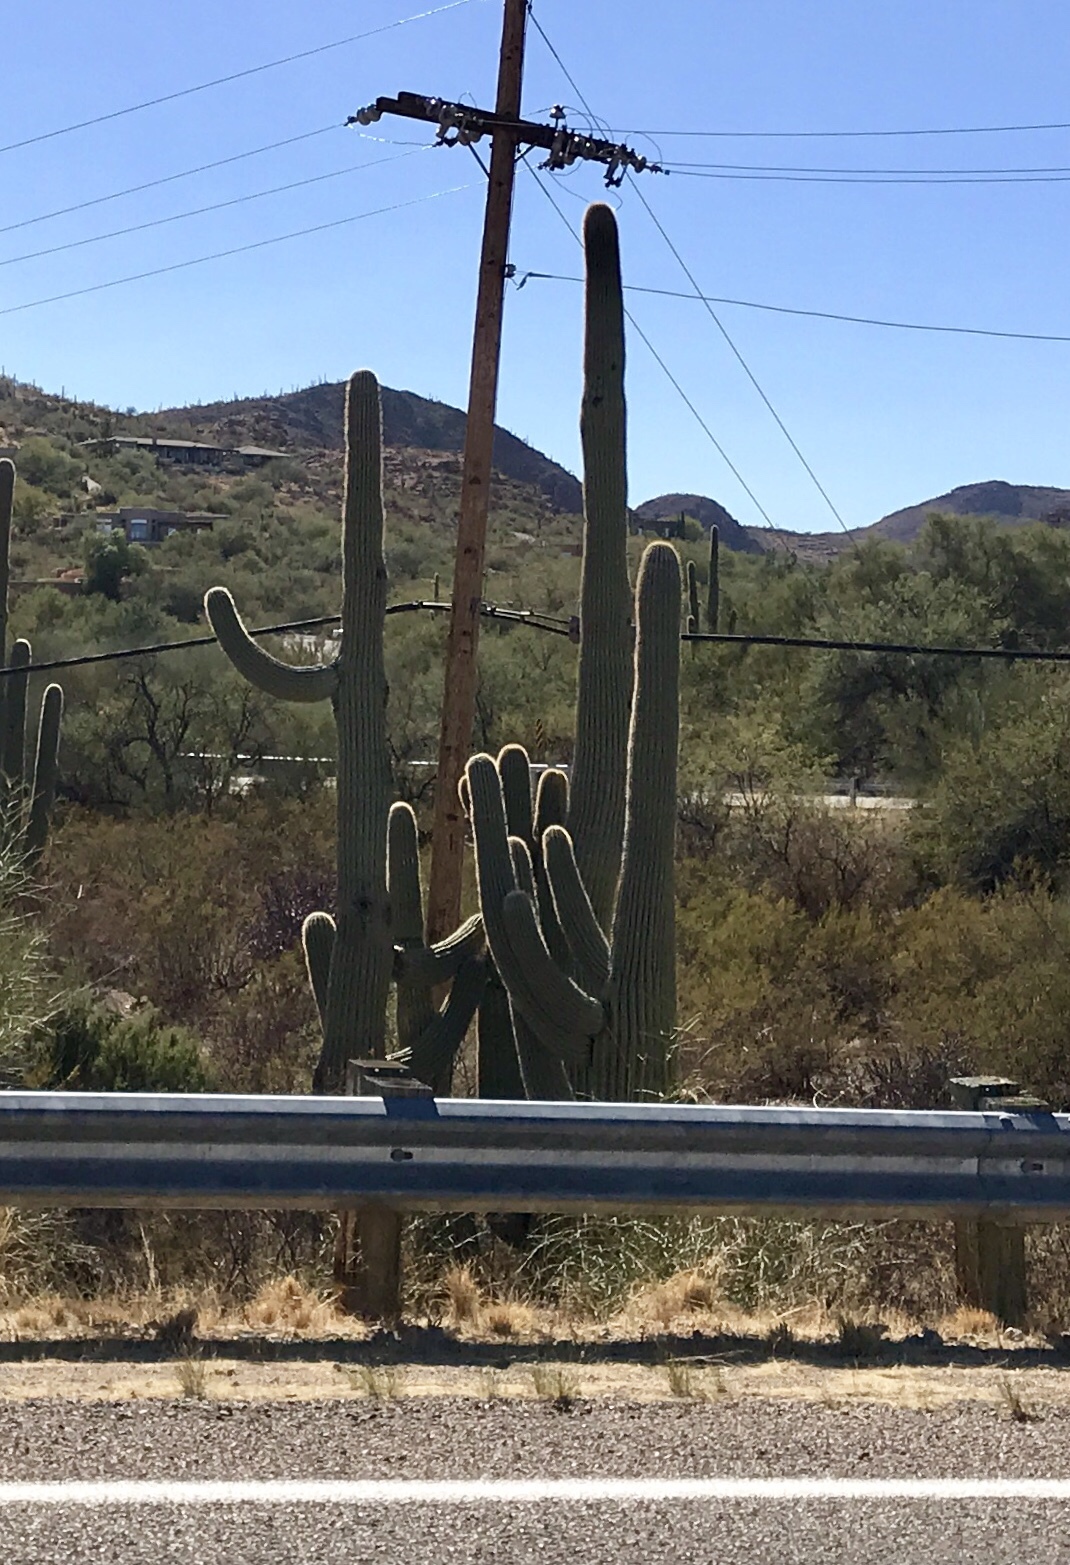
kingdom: Plantae
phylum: Tracheophyta
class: Magnoliopsida
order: Caryophyllales
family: Cactaceae
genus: Carnegiea
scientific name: Carnegiea gigantea
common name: Saguaro
